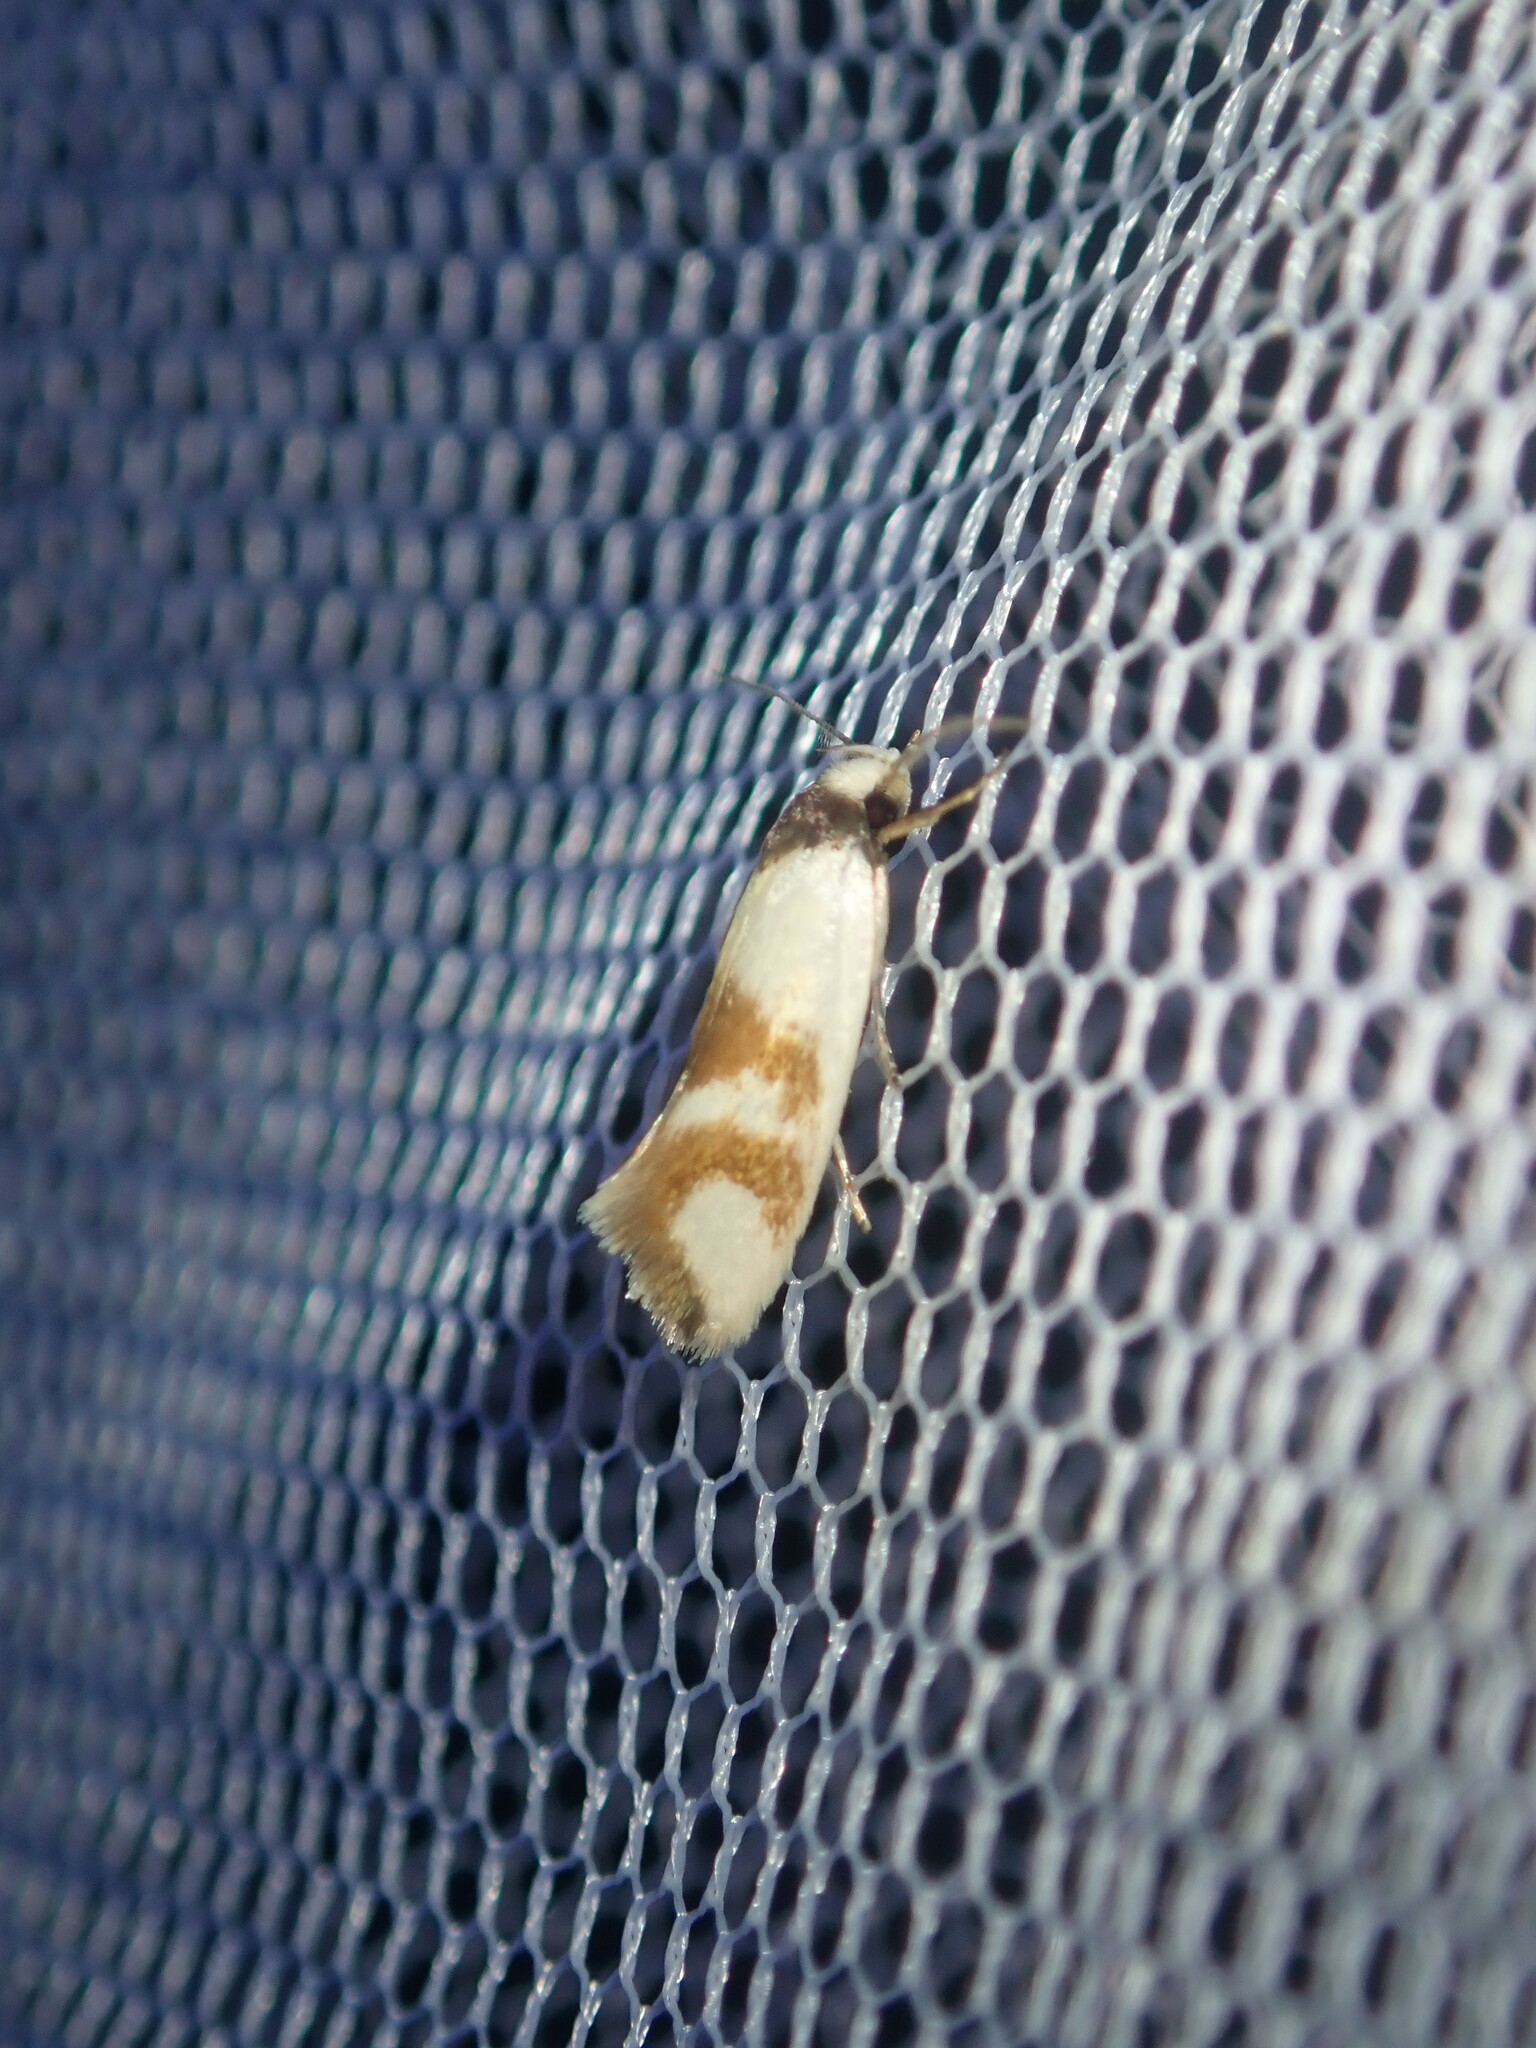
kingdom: Animalia
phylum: Arthropoda
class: Insecta
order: Lepidoptera
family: Oecophoridae
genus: Antipterna
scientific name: Antipterna trilicella
